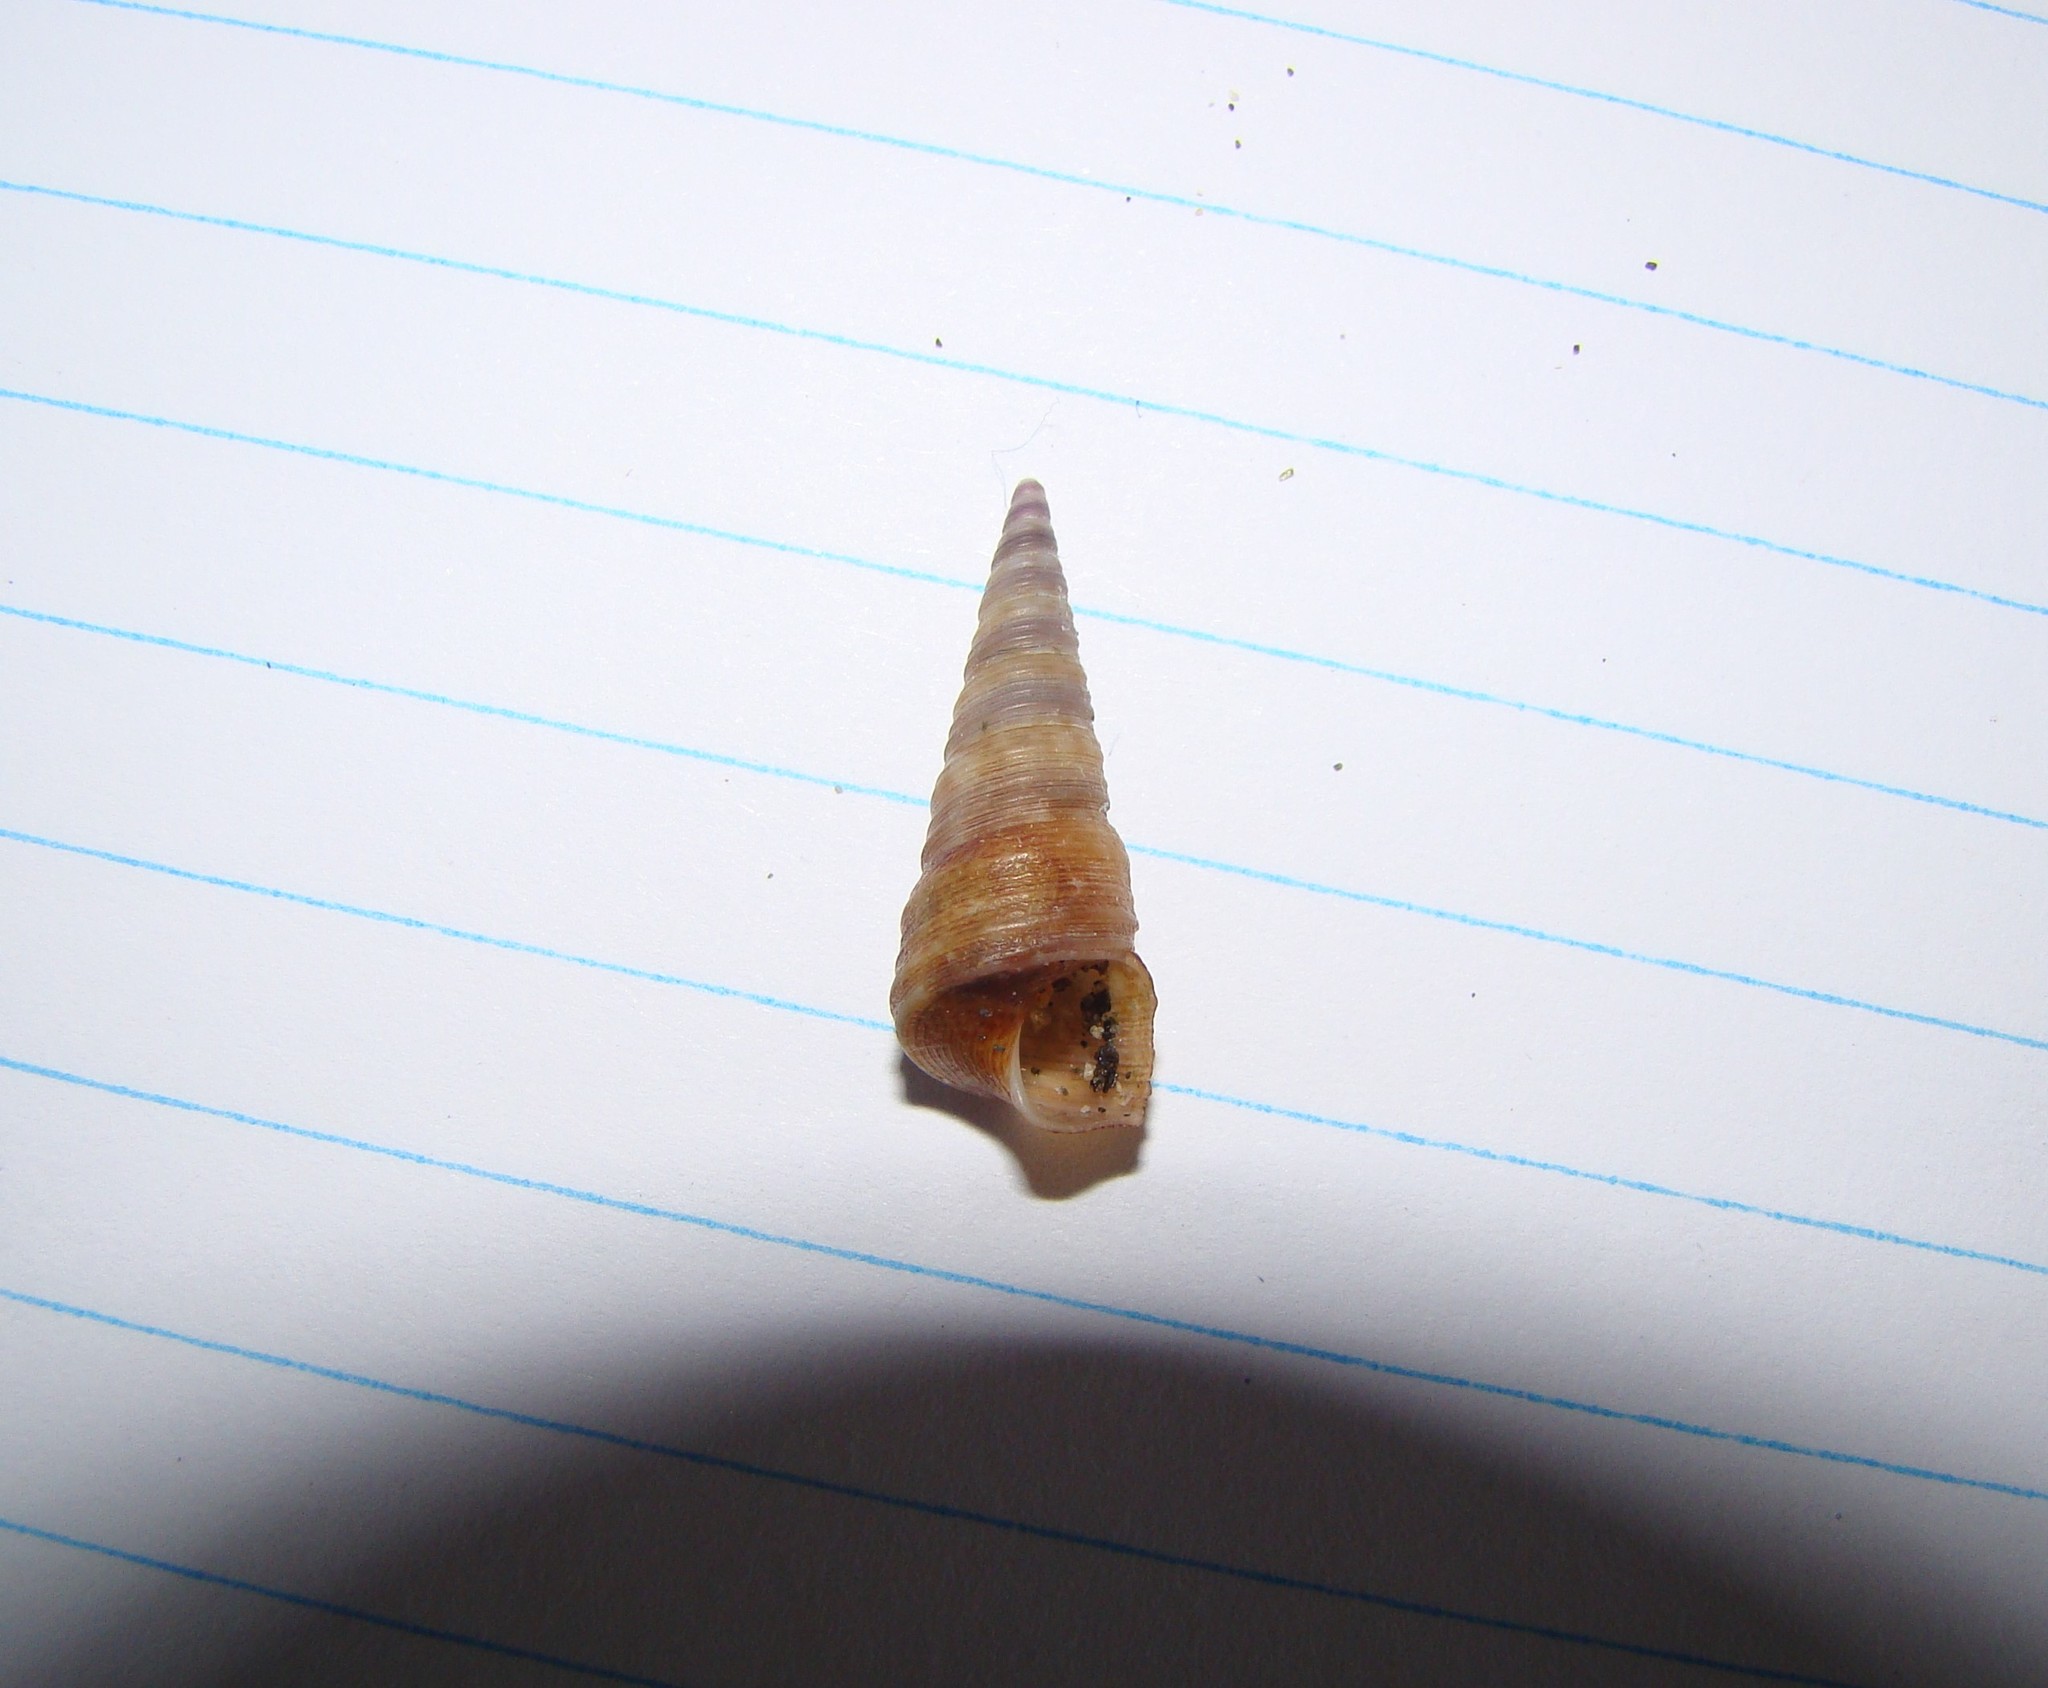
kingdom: Animalia
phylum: Mollusca
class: Gastropoda
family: Turritellidae
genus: Maoricolpus
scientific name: Maoricolpus roseus
